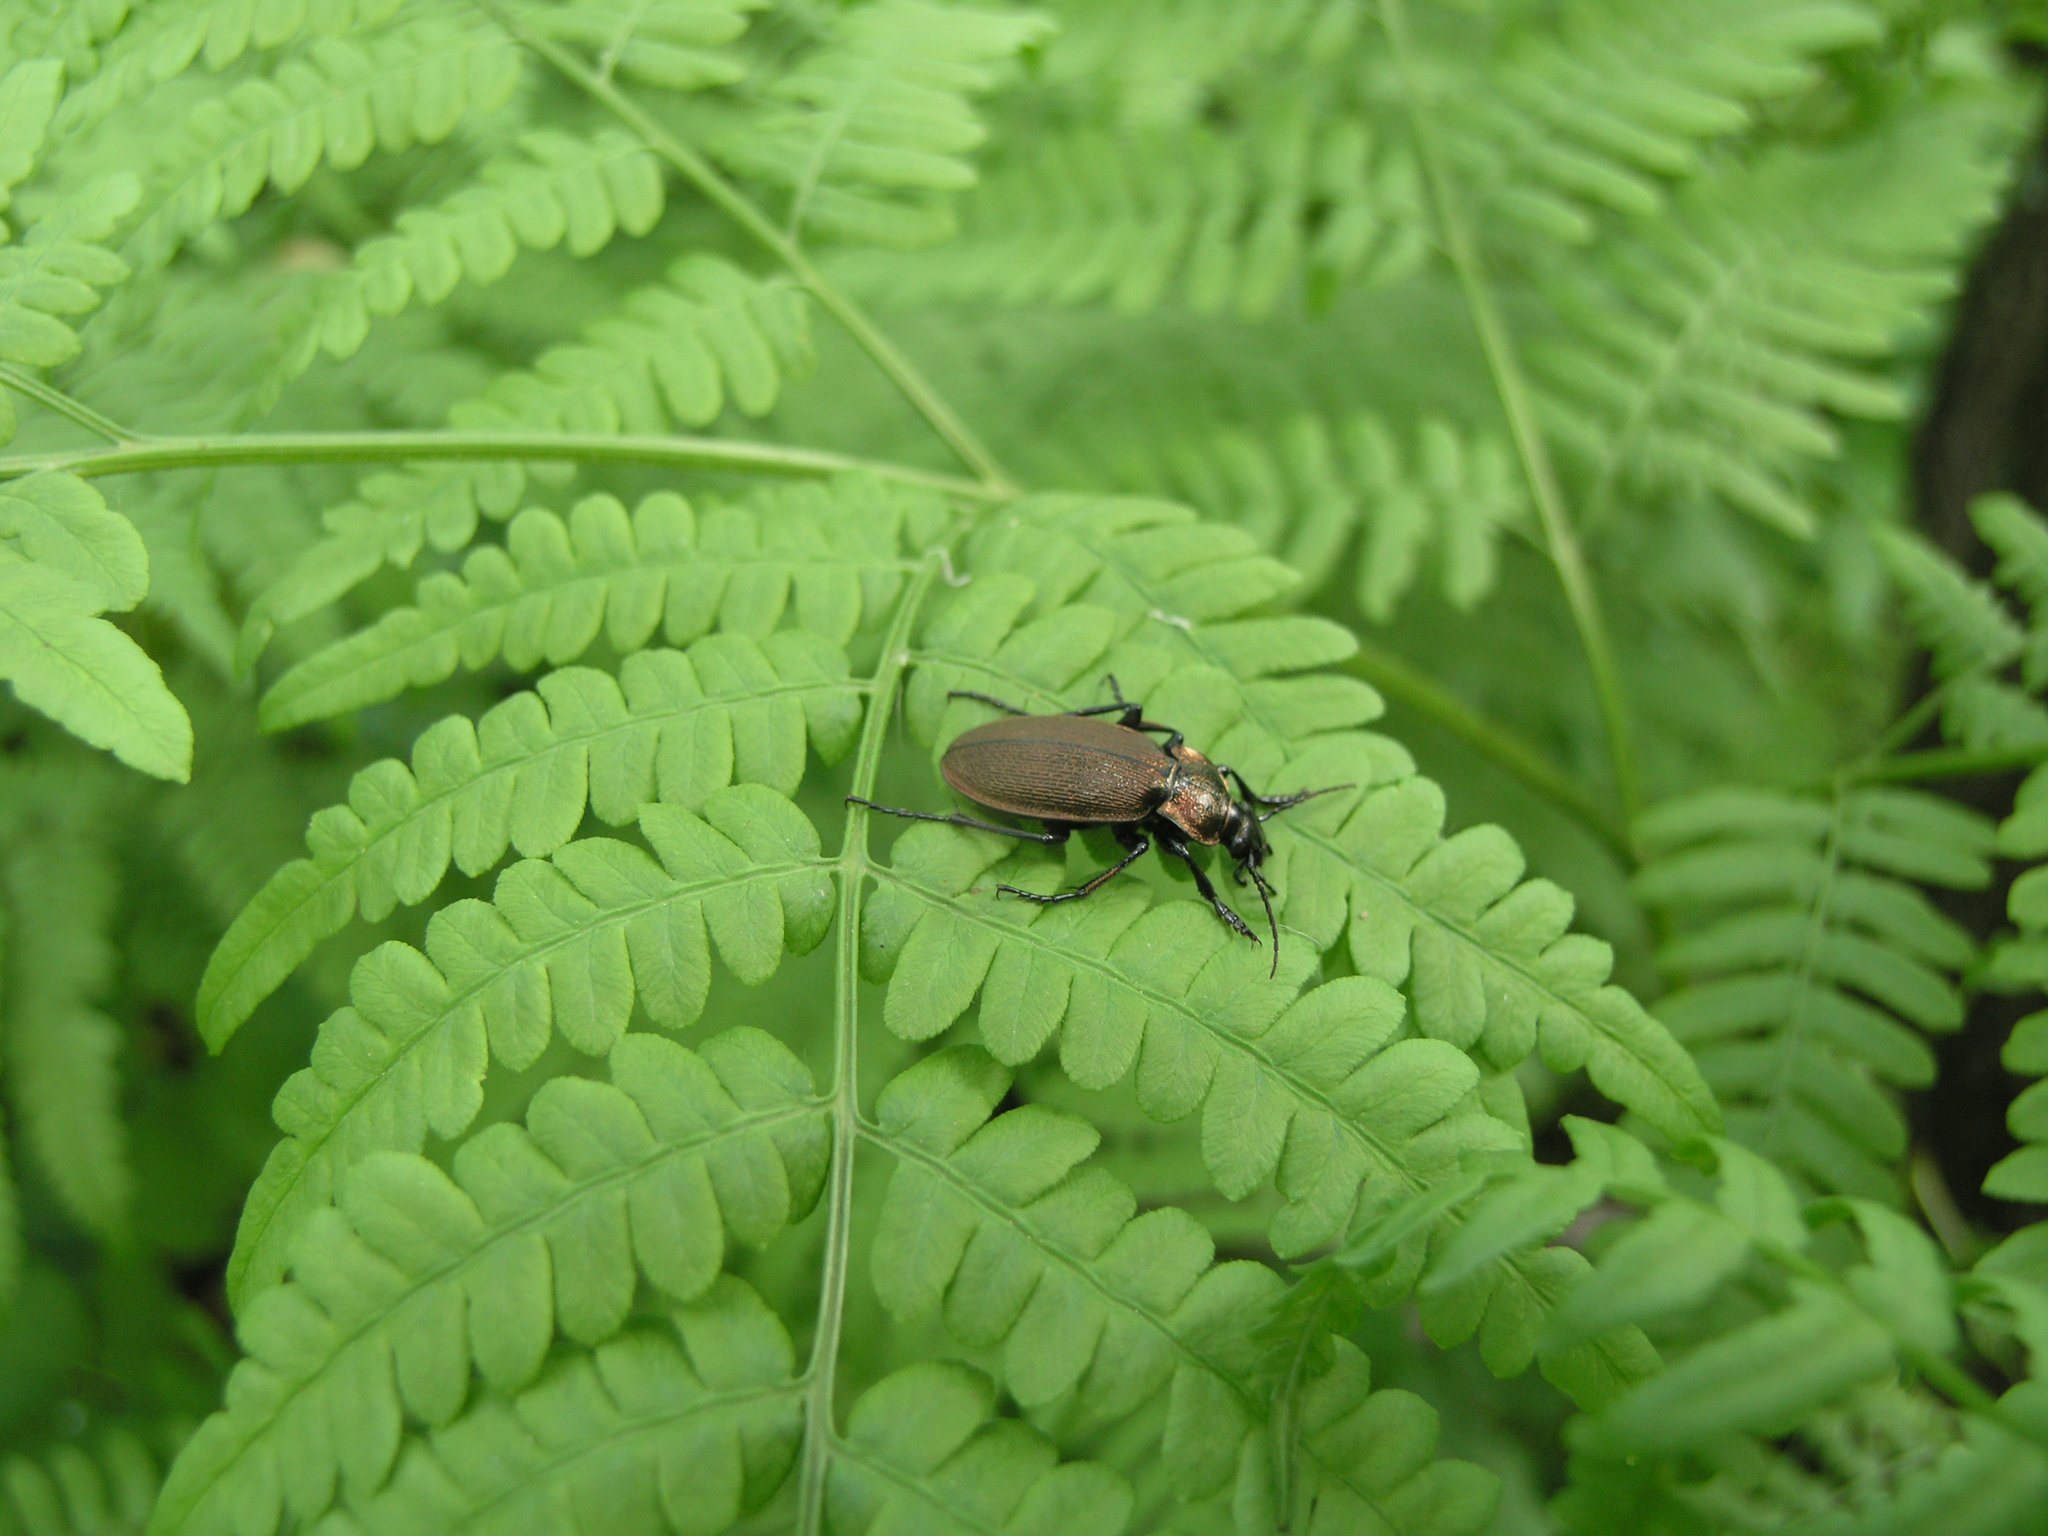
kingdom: Plantae
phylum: Tracheophyta
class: Polypodiopsida
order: Polypodiales
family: Dennstaedtiaceae
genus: Pteridium
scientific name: Pteridium aquilinum
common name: Bracken
